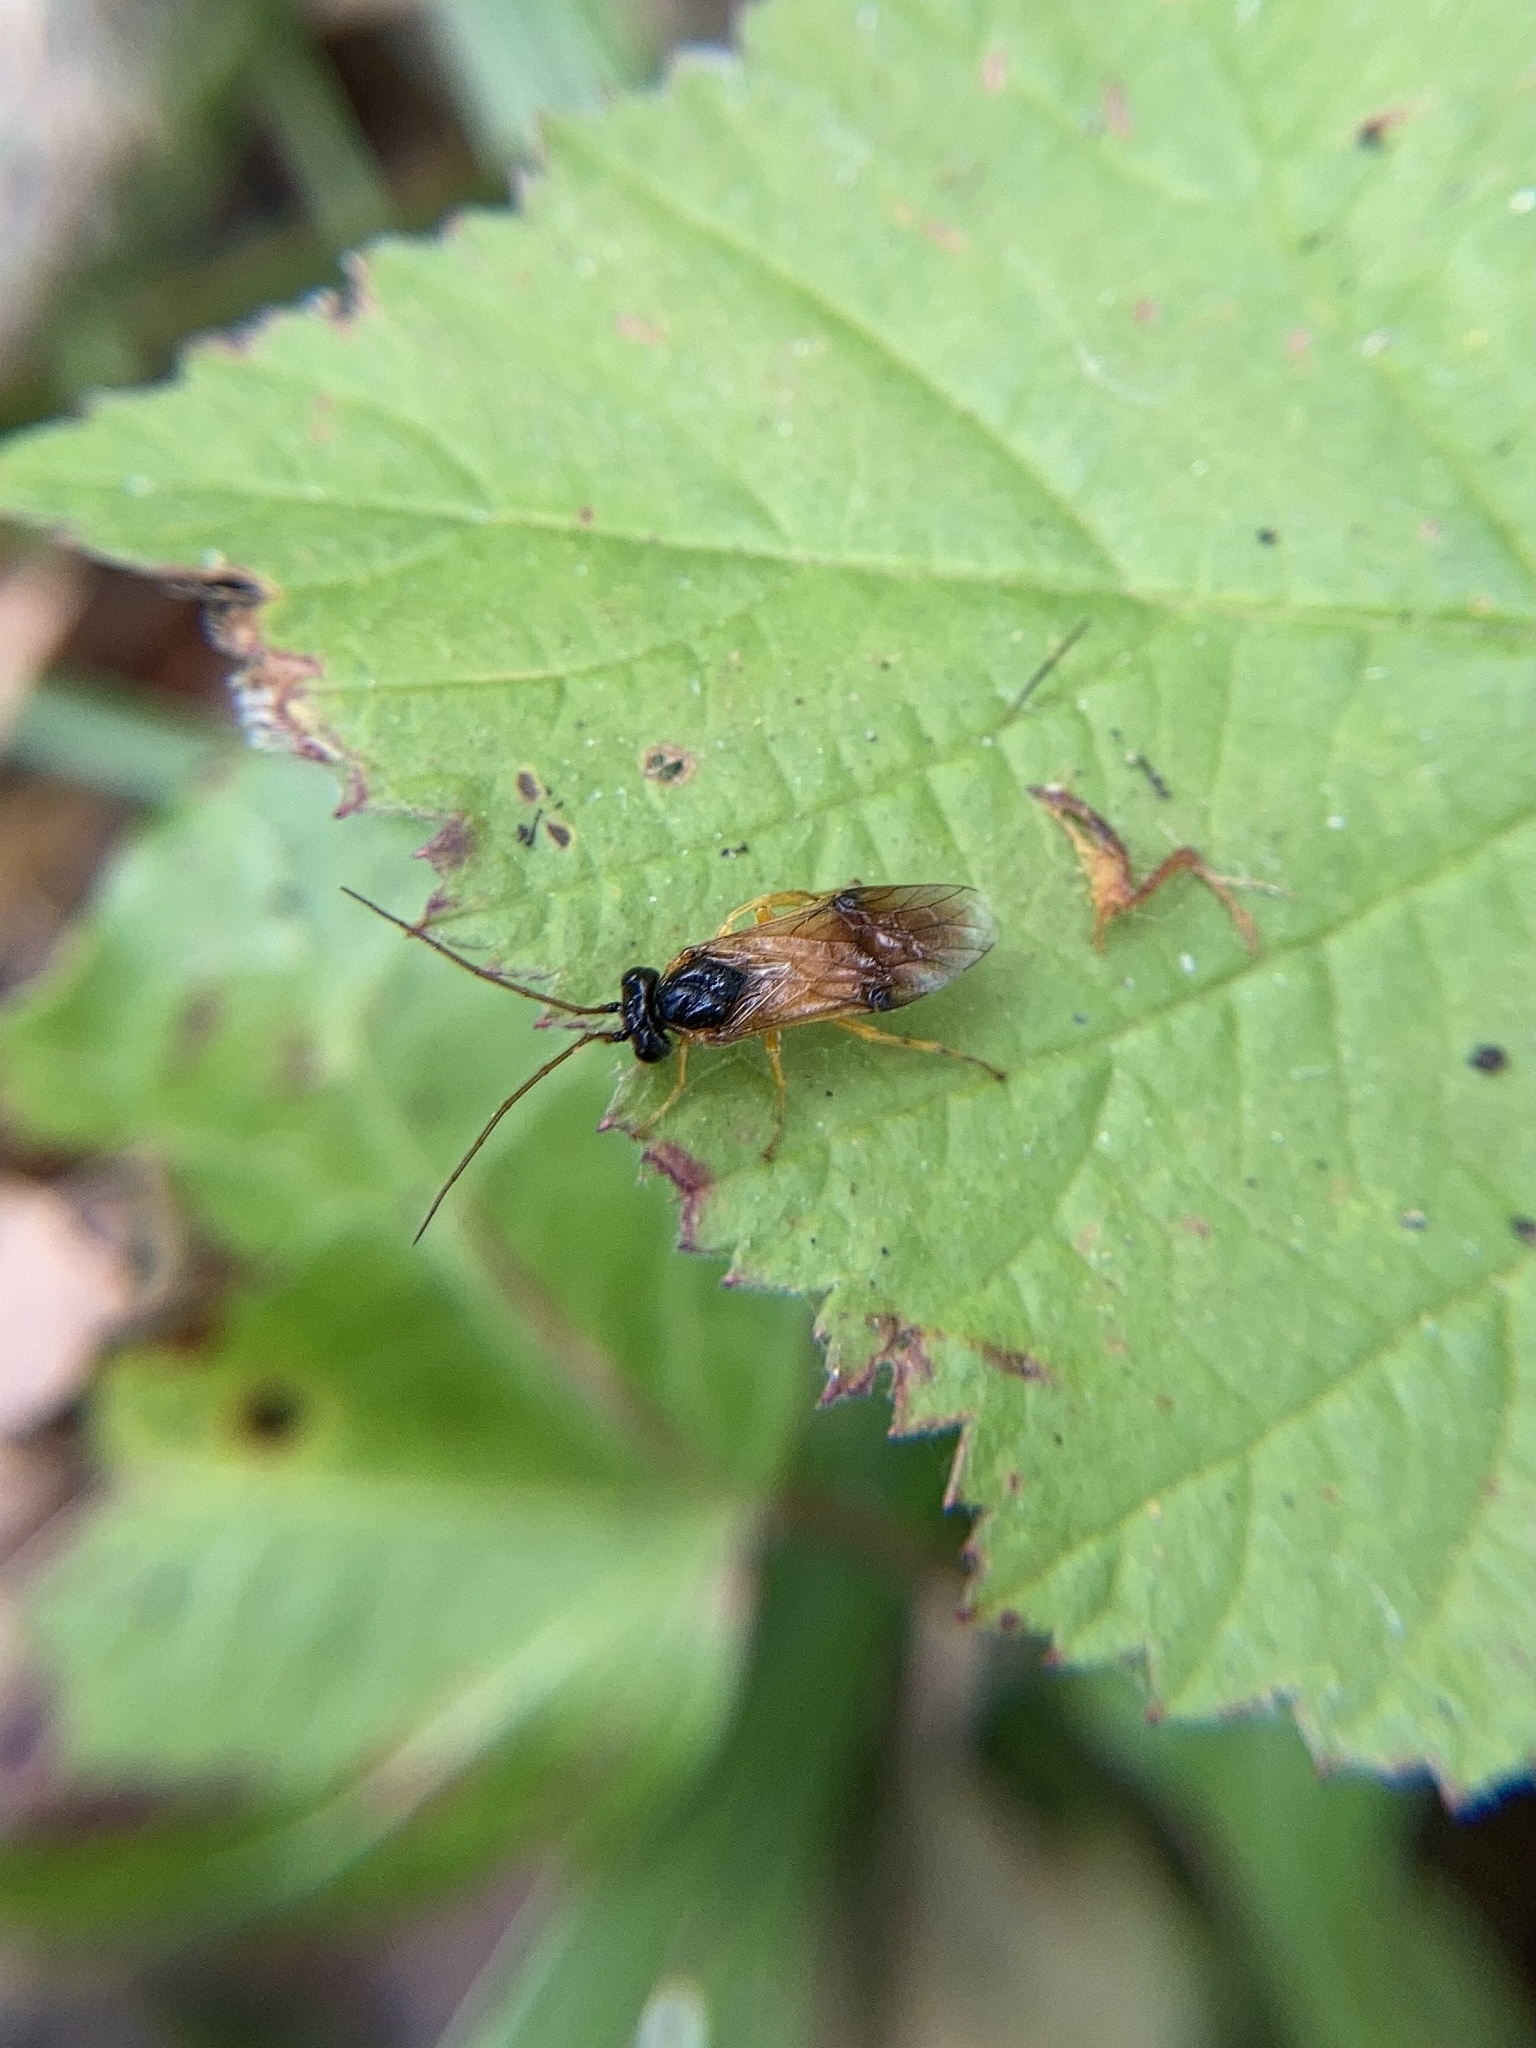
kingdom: Animalia
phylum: Arthropoda
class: Insecta
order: Hymenoptera
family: Tenthredinidae
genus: Cladius
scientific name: Cladius grandis
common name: Common sawfly
